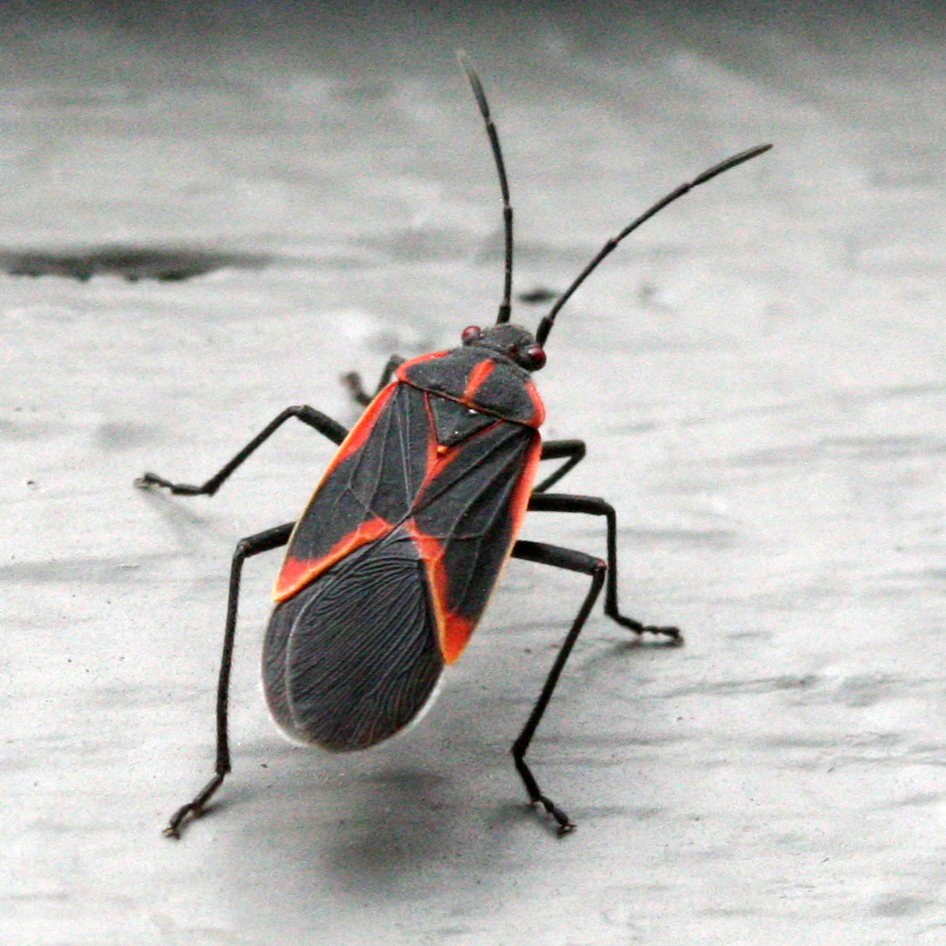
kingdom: Animalia
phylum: Arthropoda
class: Insecta
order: Hemiptera
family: Rhopalidae
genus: Boisea
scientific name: Boisea trivittata
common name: Boxelder bug
